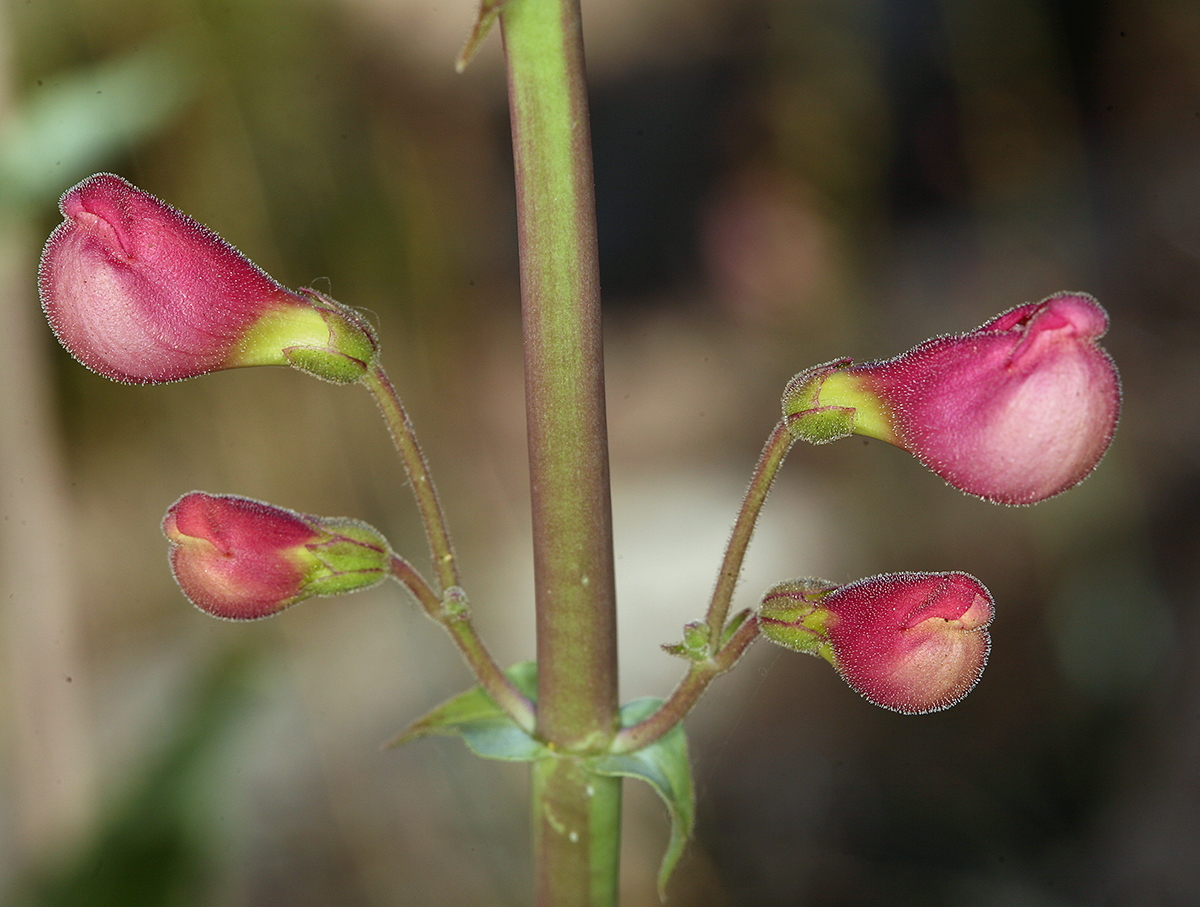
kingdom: Plantae
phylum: Tracheophyta
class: Magnoliopsida
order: Lamiales
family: Plantaginaceae
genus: Penstemon
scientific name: Penstemon floridus
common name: Panamint penstemon
